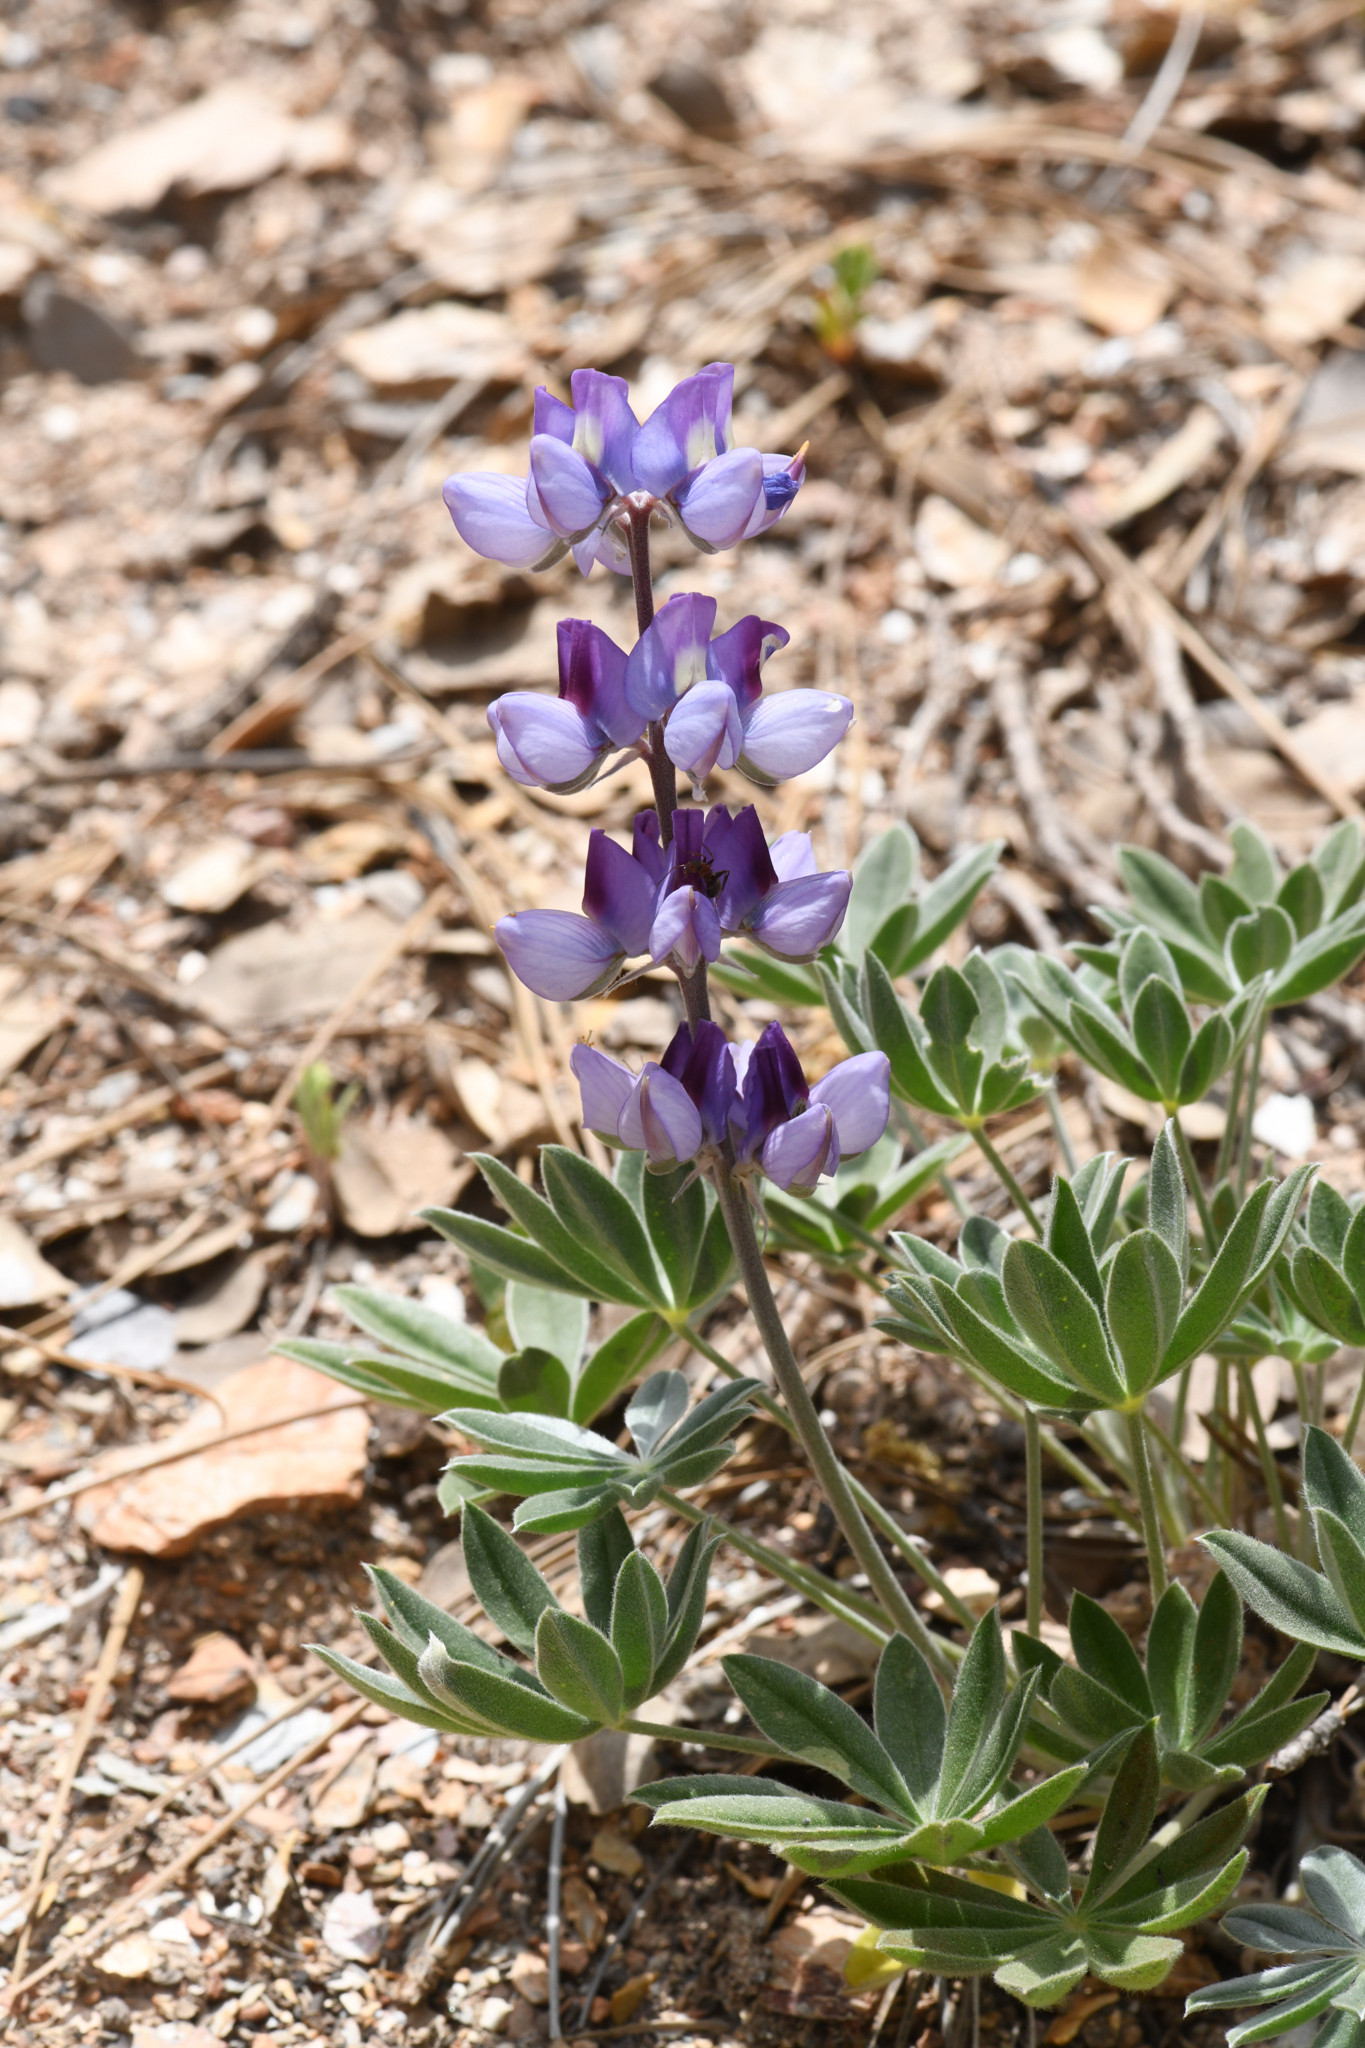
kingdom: Plantae
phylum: Tracheophyta
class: Magnoliopsida
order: Fabales
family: Fabaceae
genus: Lupinus
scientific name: Lupinus grayi
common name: Sierra lupine
